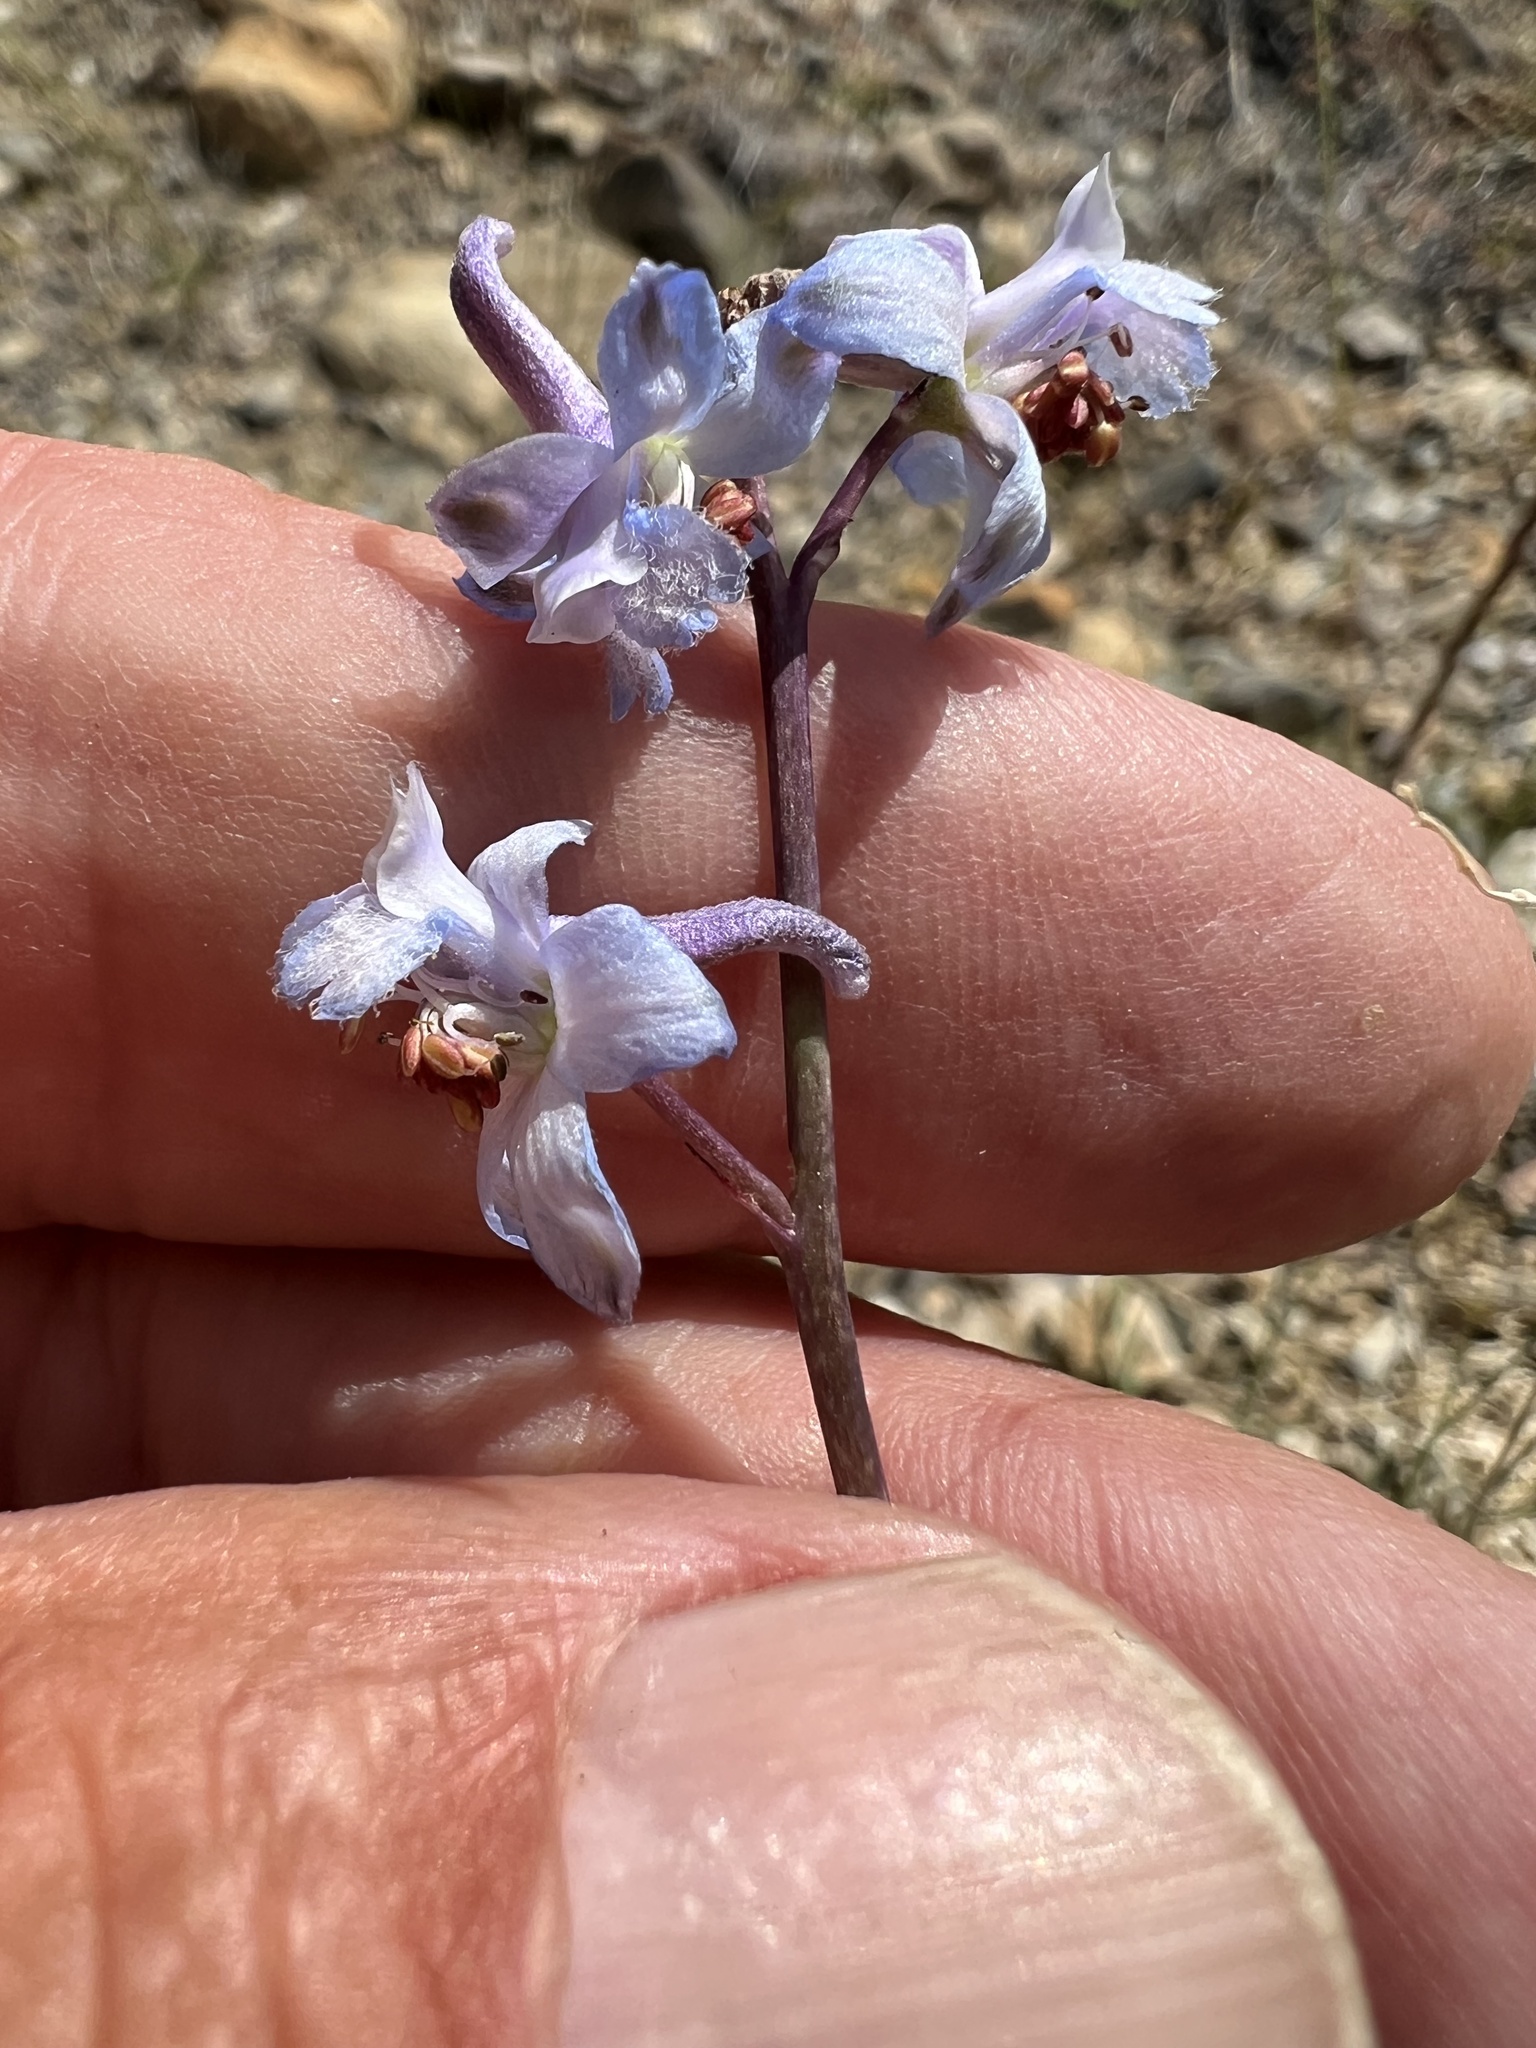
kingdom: Plantae
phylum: Tracheophyta
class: Magnoliopsida
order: Ranunculales
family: Ranunculaceae
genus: Delphinium
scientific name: Delphinium parishii
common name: Apache larkspur
